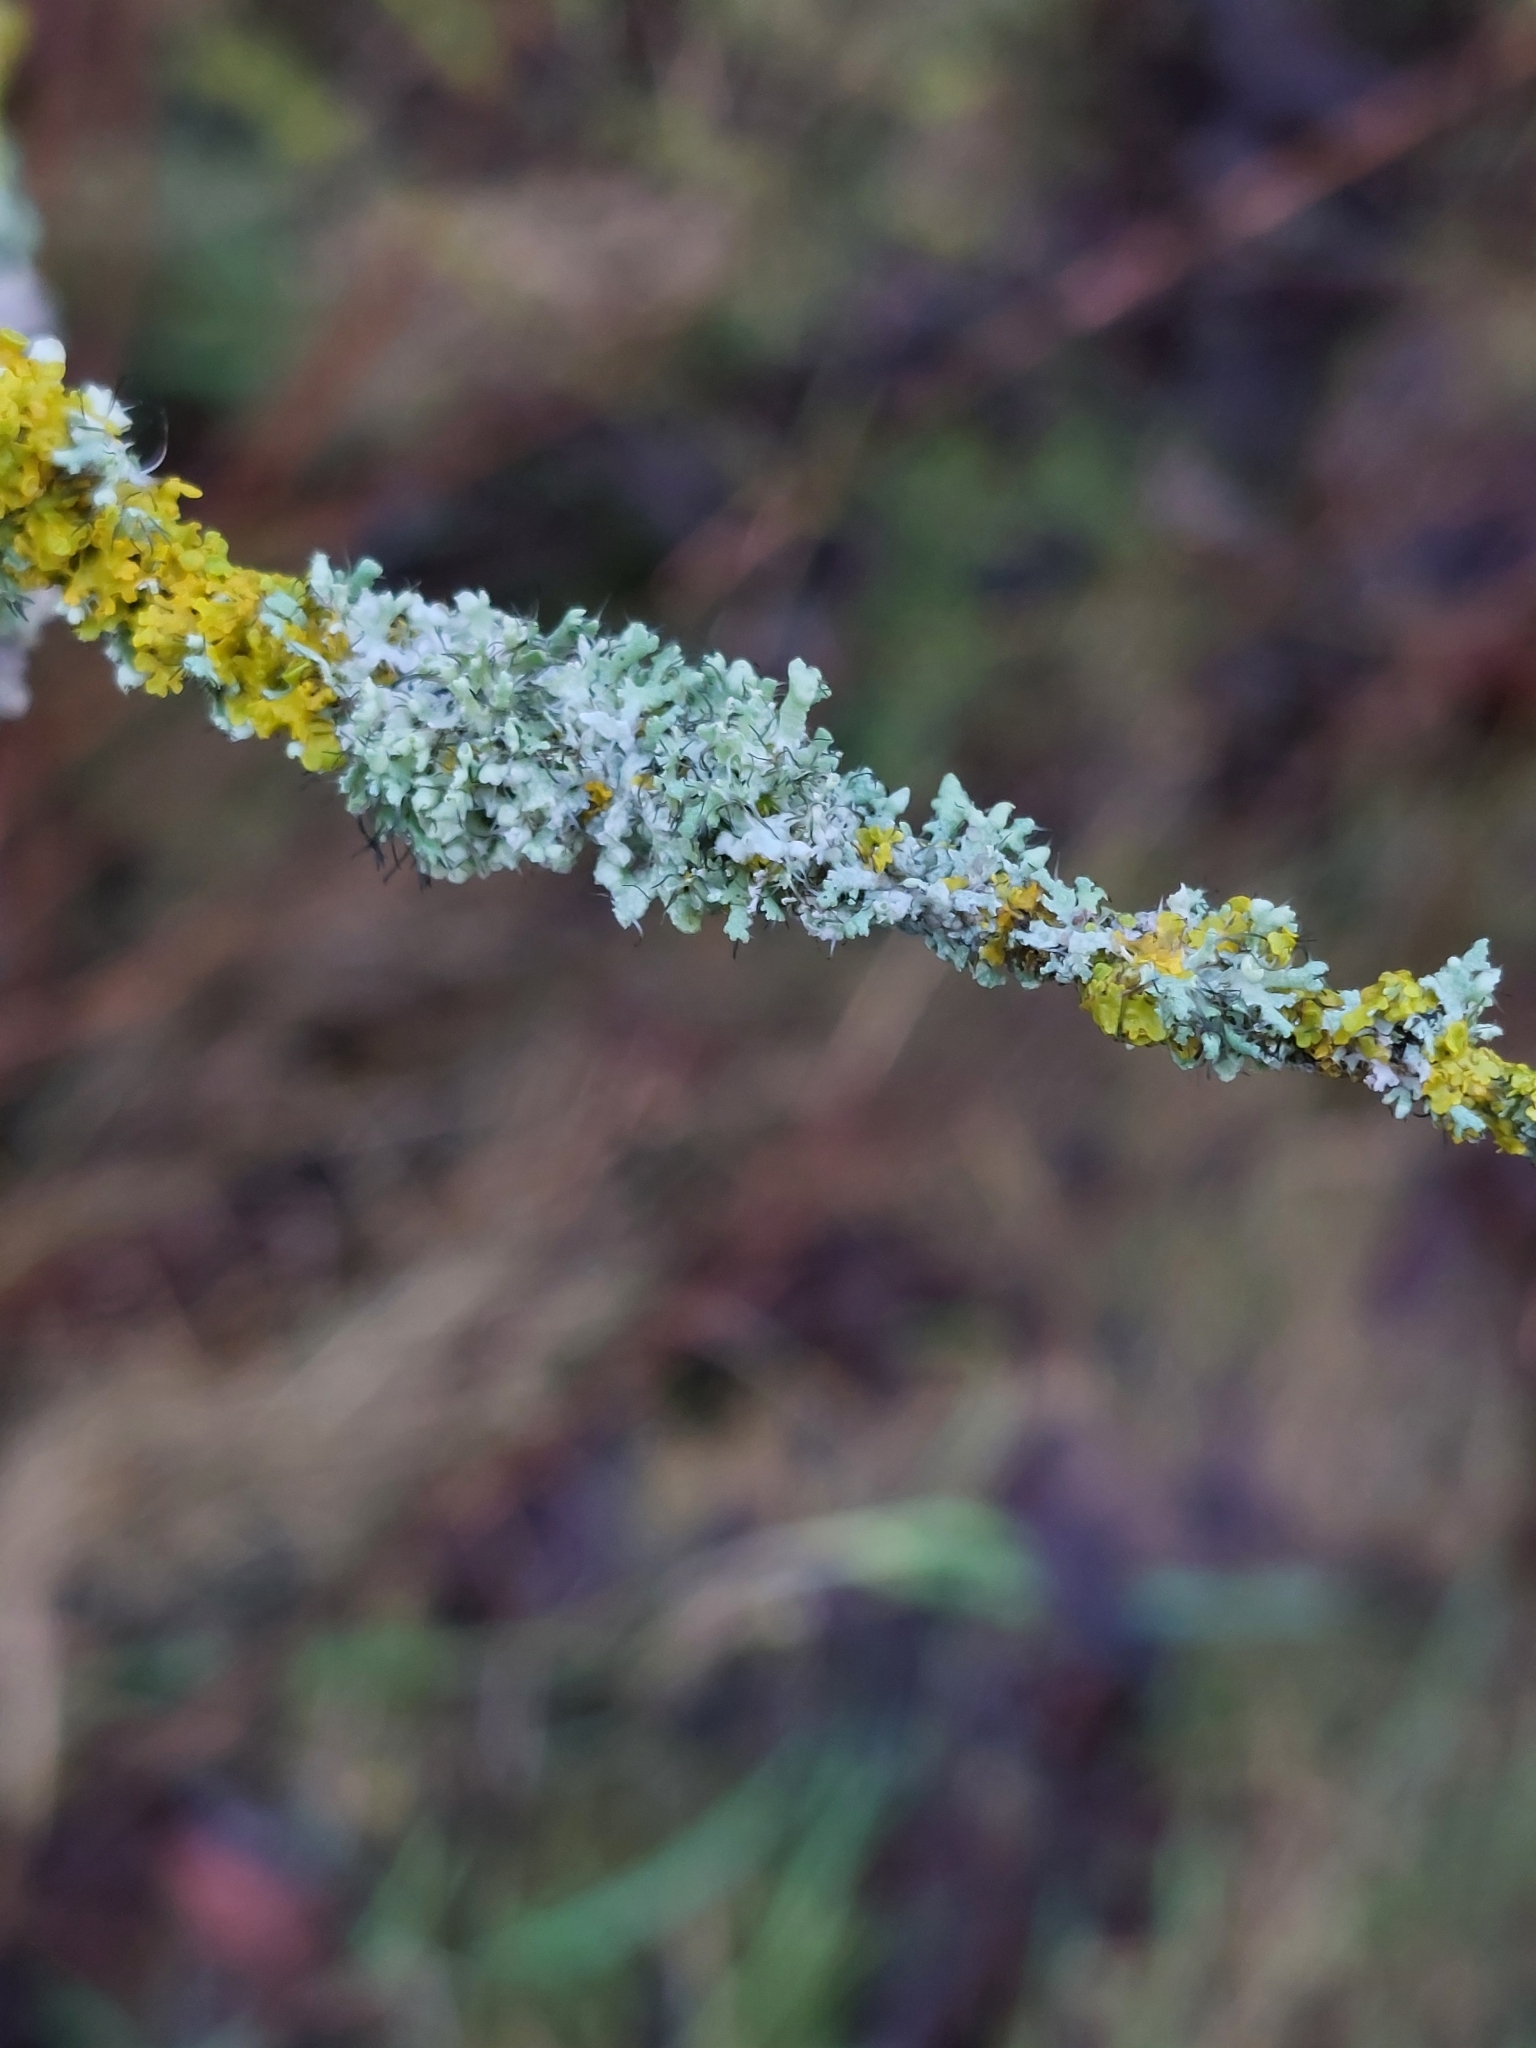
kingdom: Fungi
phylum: Ascomycota
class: Lecanoromycetes
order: Caliciales
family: Physciaceae
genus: Physcia
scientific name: Physcia adscendens
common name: Hooded rosette lichen
